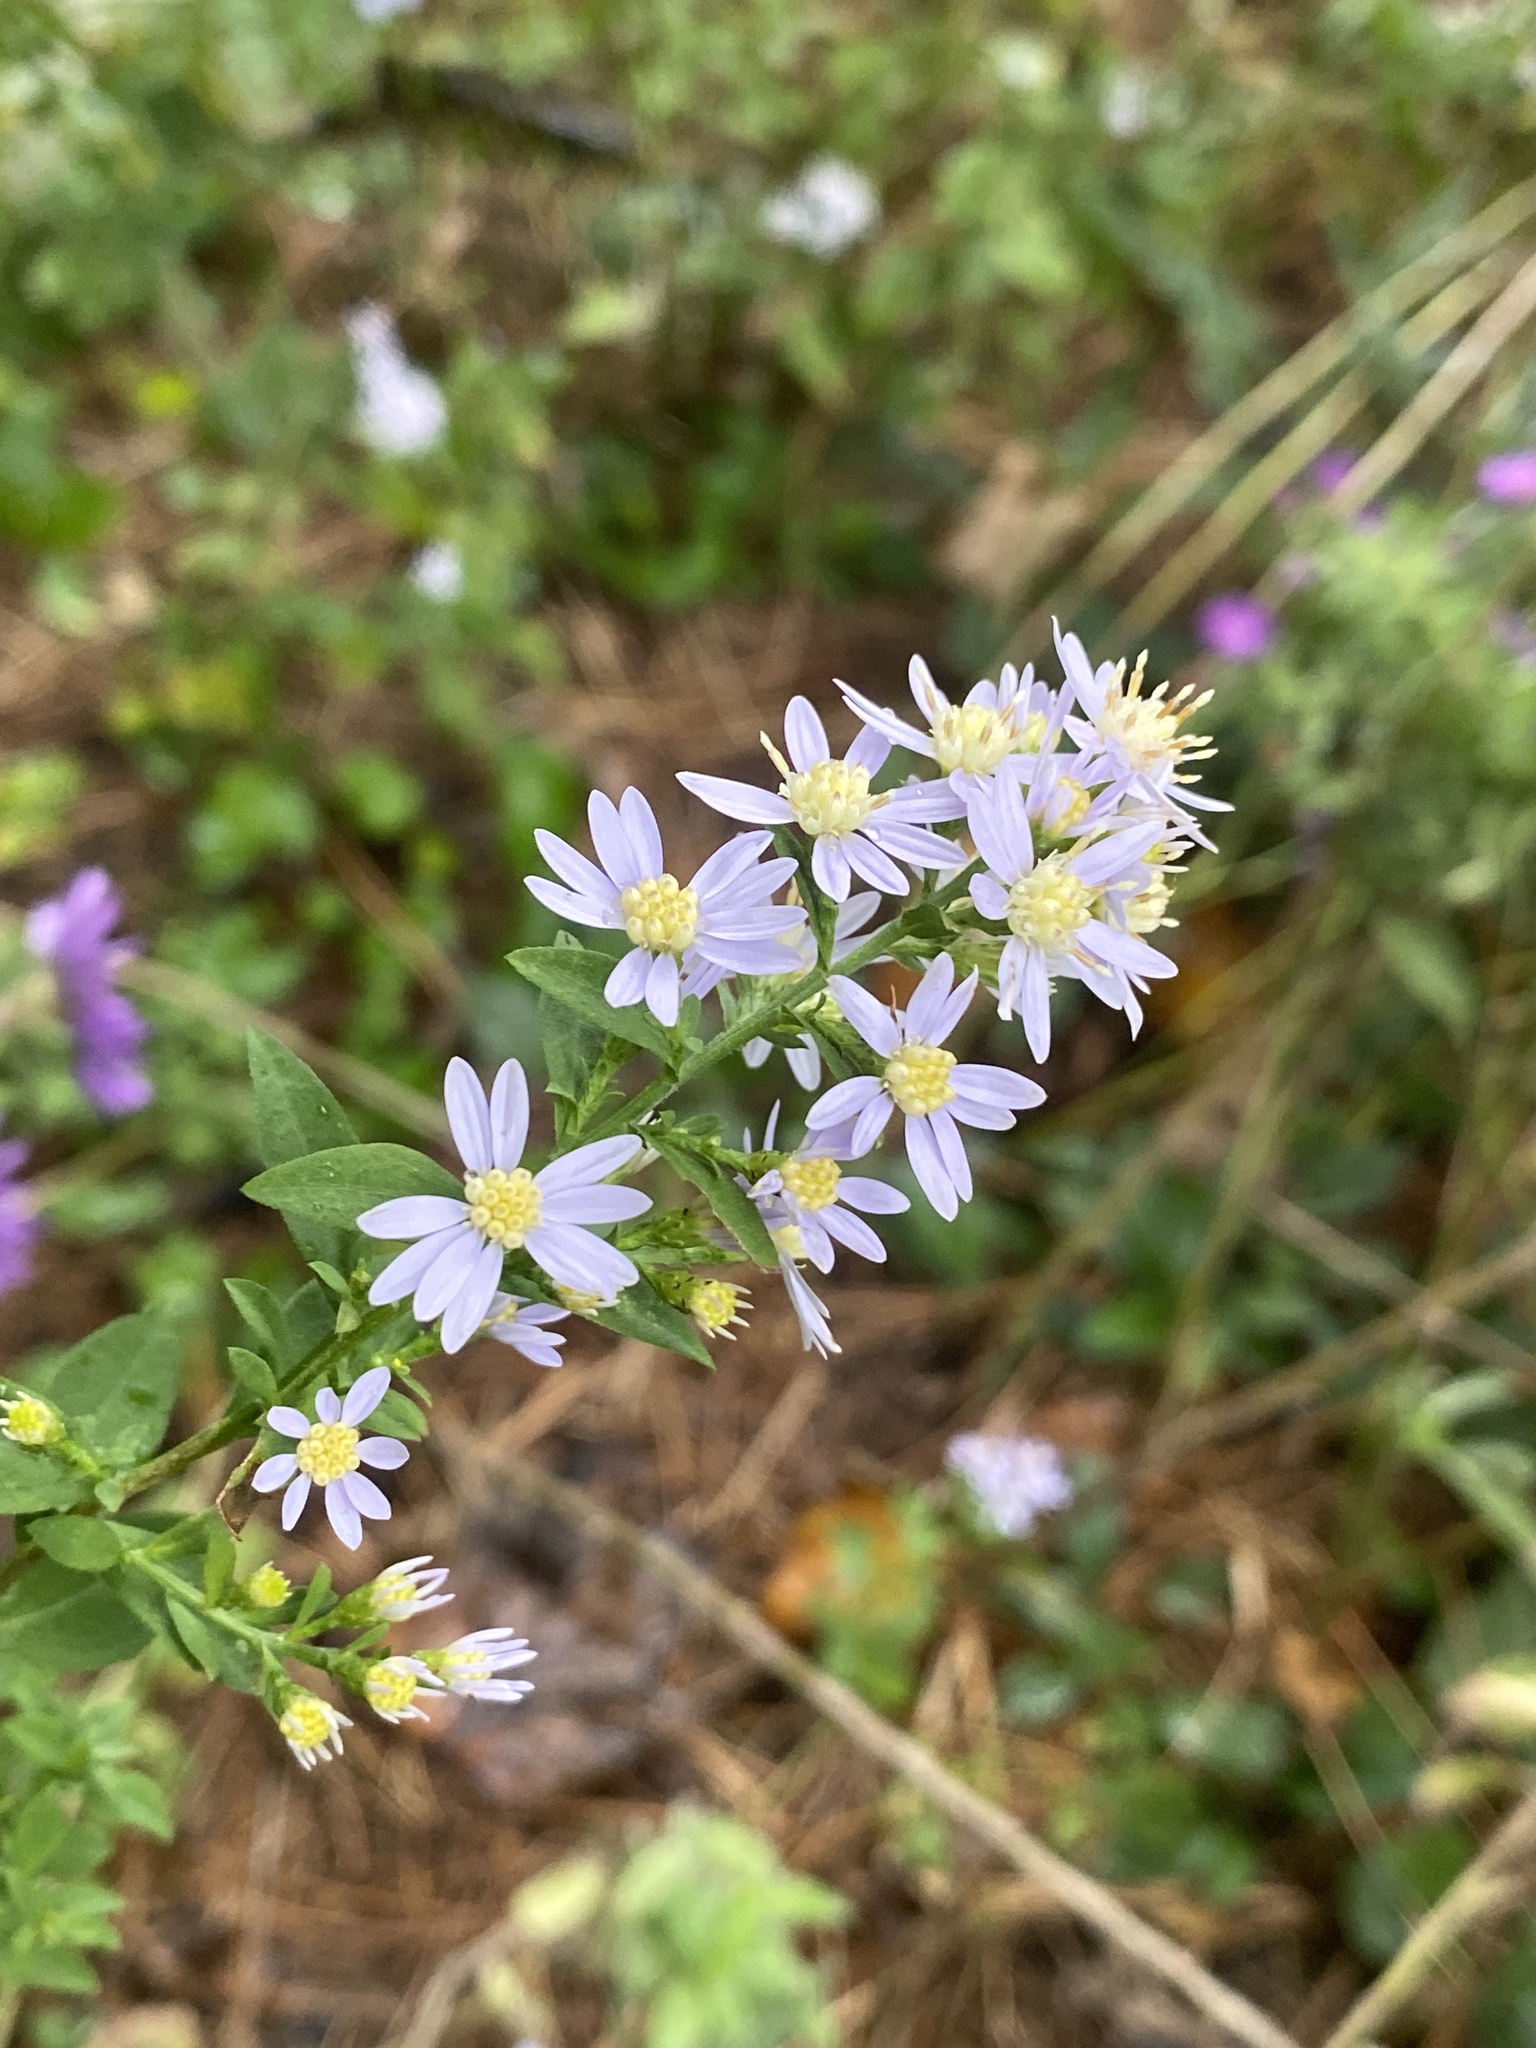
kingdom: Plantae
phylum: Tracheophyta
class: Magnoliopsida
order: Asterales
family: Asteraceae
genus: Symphyotrichum
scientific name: Symphyotrichum cordifolium
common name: Beeweed
